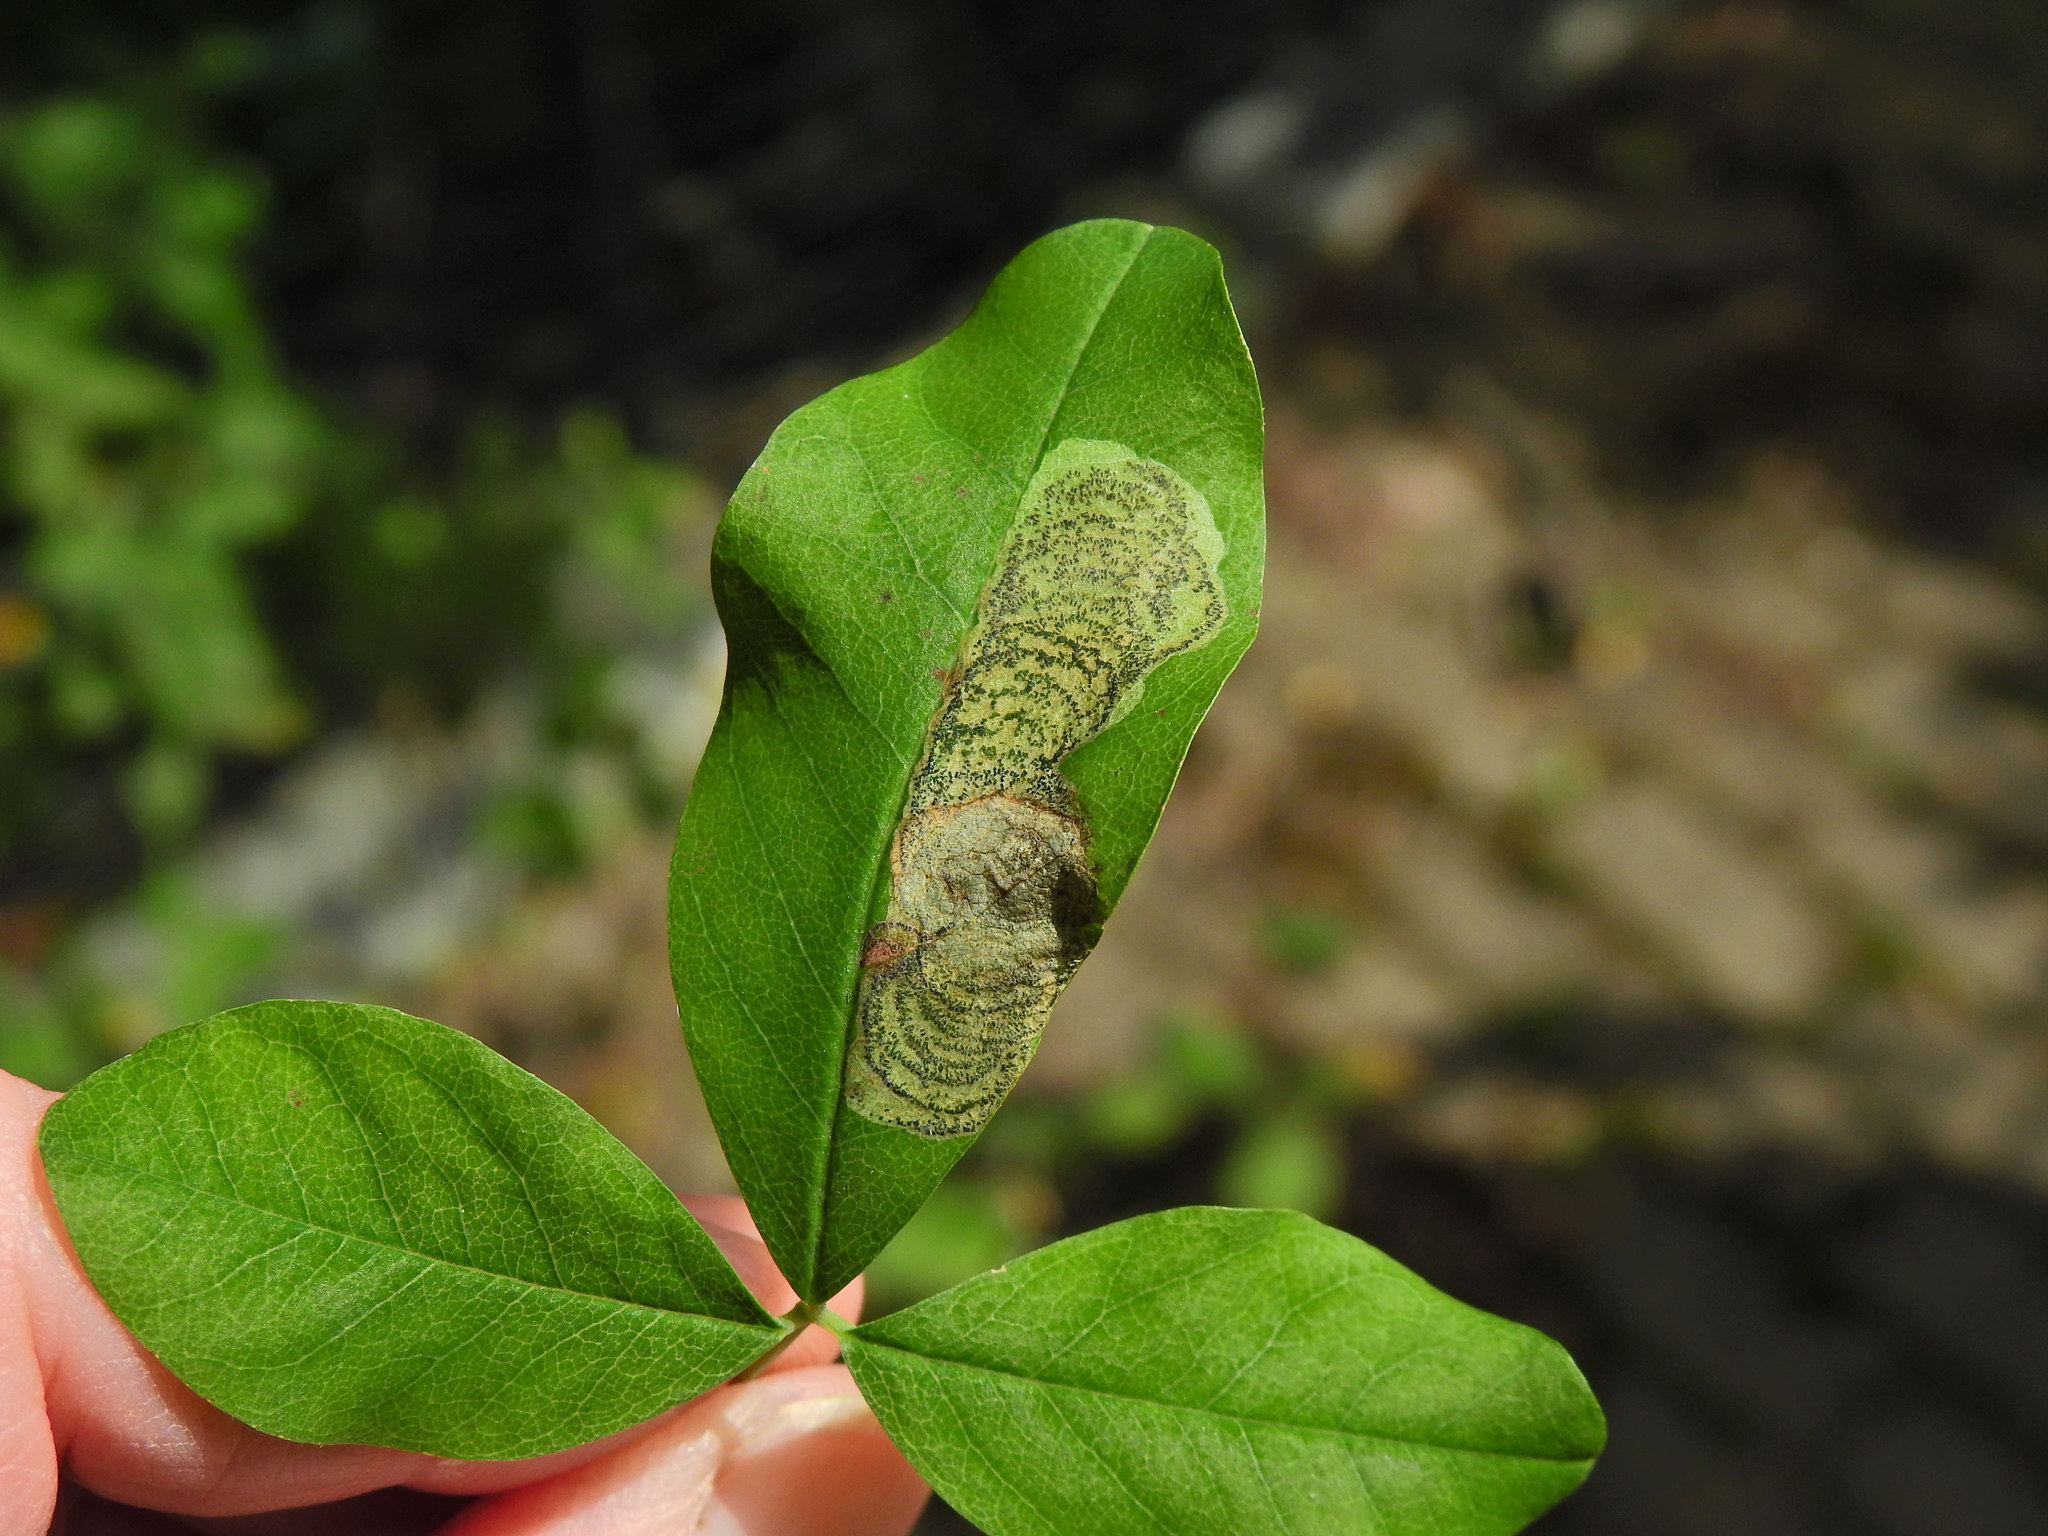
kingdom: Animalia
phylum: Arthropoda
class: Insecta
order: Lepidoptera
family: Lyonetiidae
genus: Leucoptera
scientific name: Leucoptera laburnella
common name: Laburnum leaf miner
